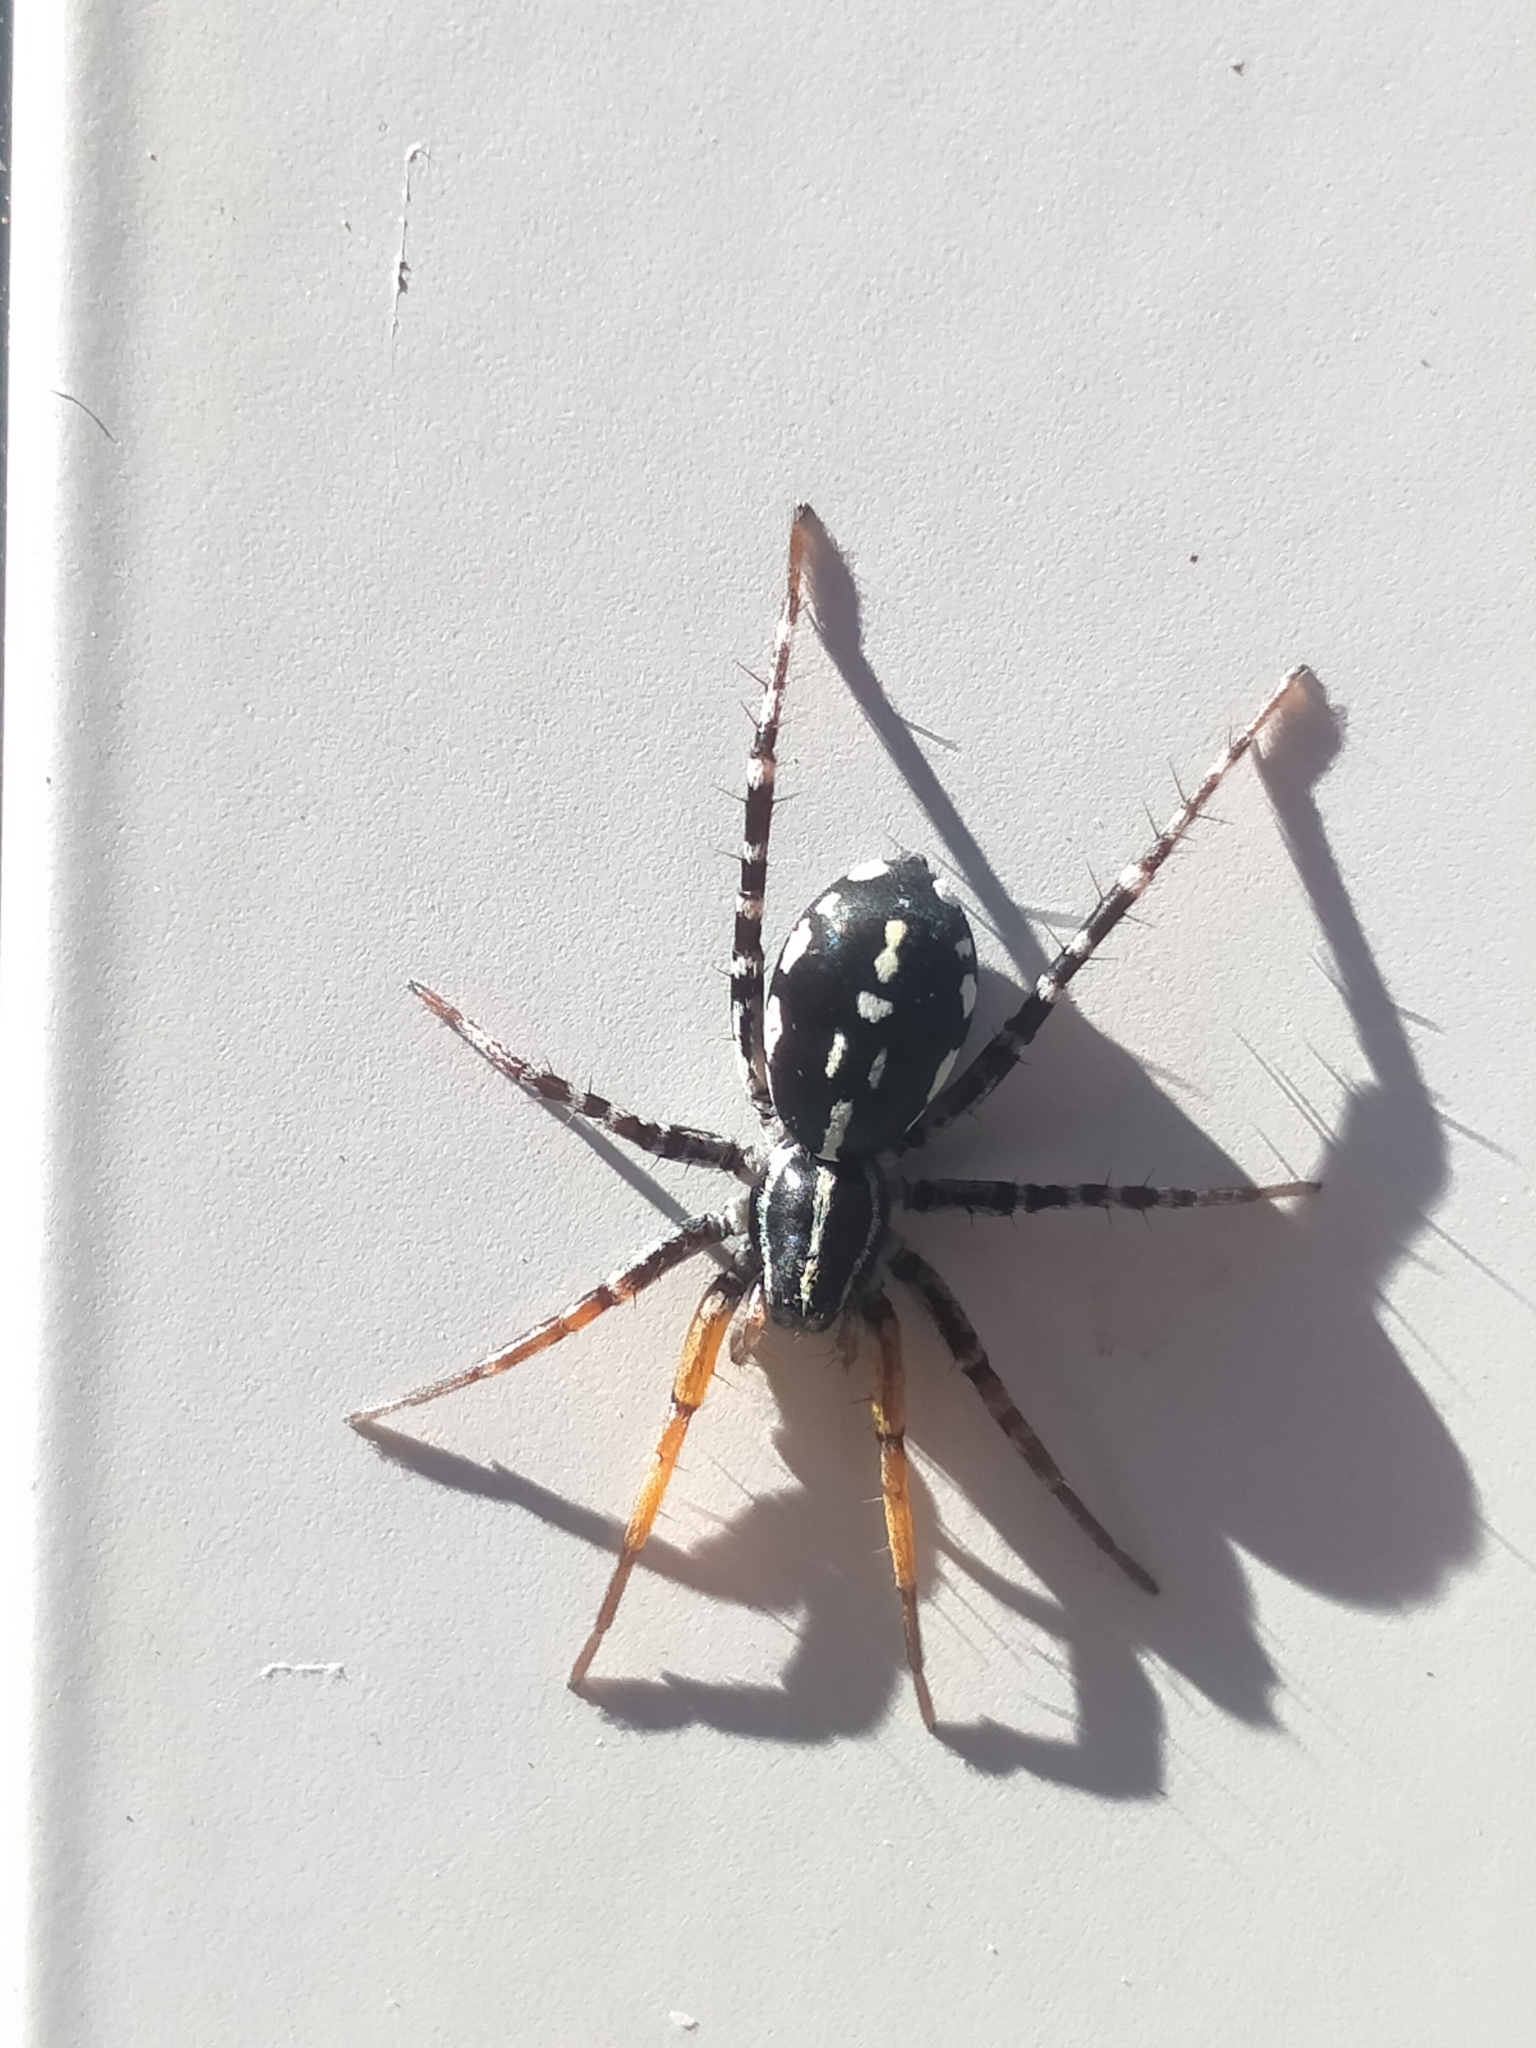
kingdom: Animalia
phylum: Arthropoda
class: Arachnida
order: Araneae
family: Corinnidae
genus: Nyssus
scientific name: Nyssus coloripes
